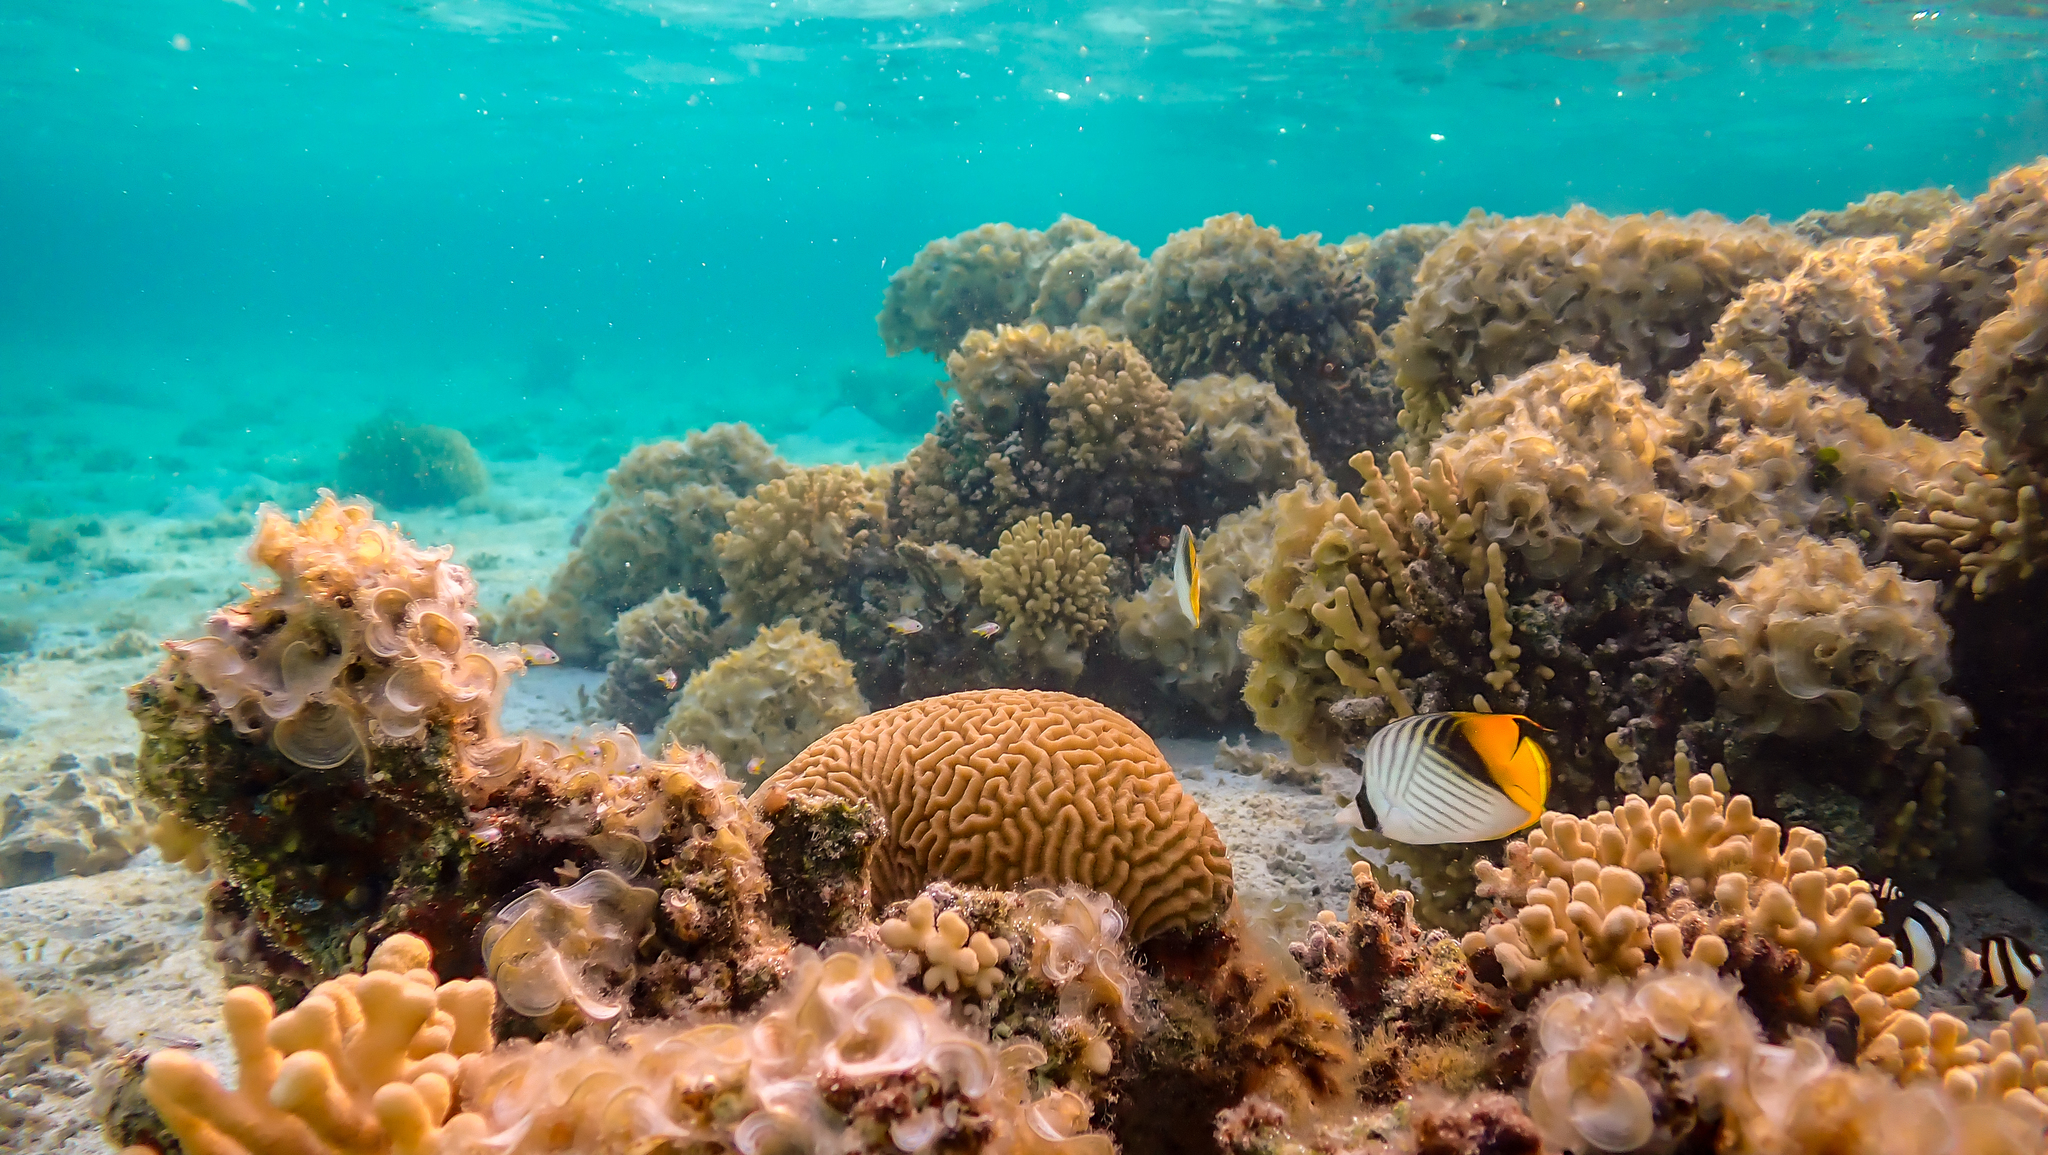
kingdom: Animalia
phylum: Chordata
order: Perciformes
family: Chaetodontidae
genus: Chaetodon
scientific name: Chaetodon auriga
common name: Threadfin butterflyfish
